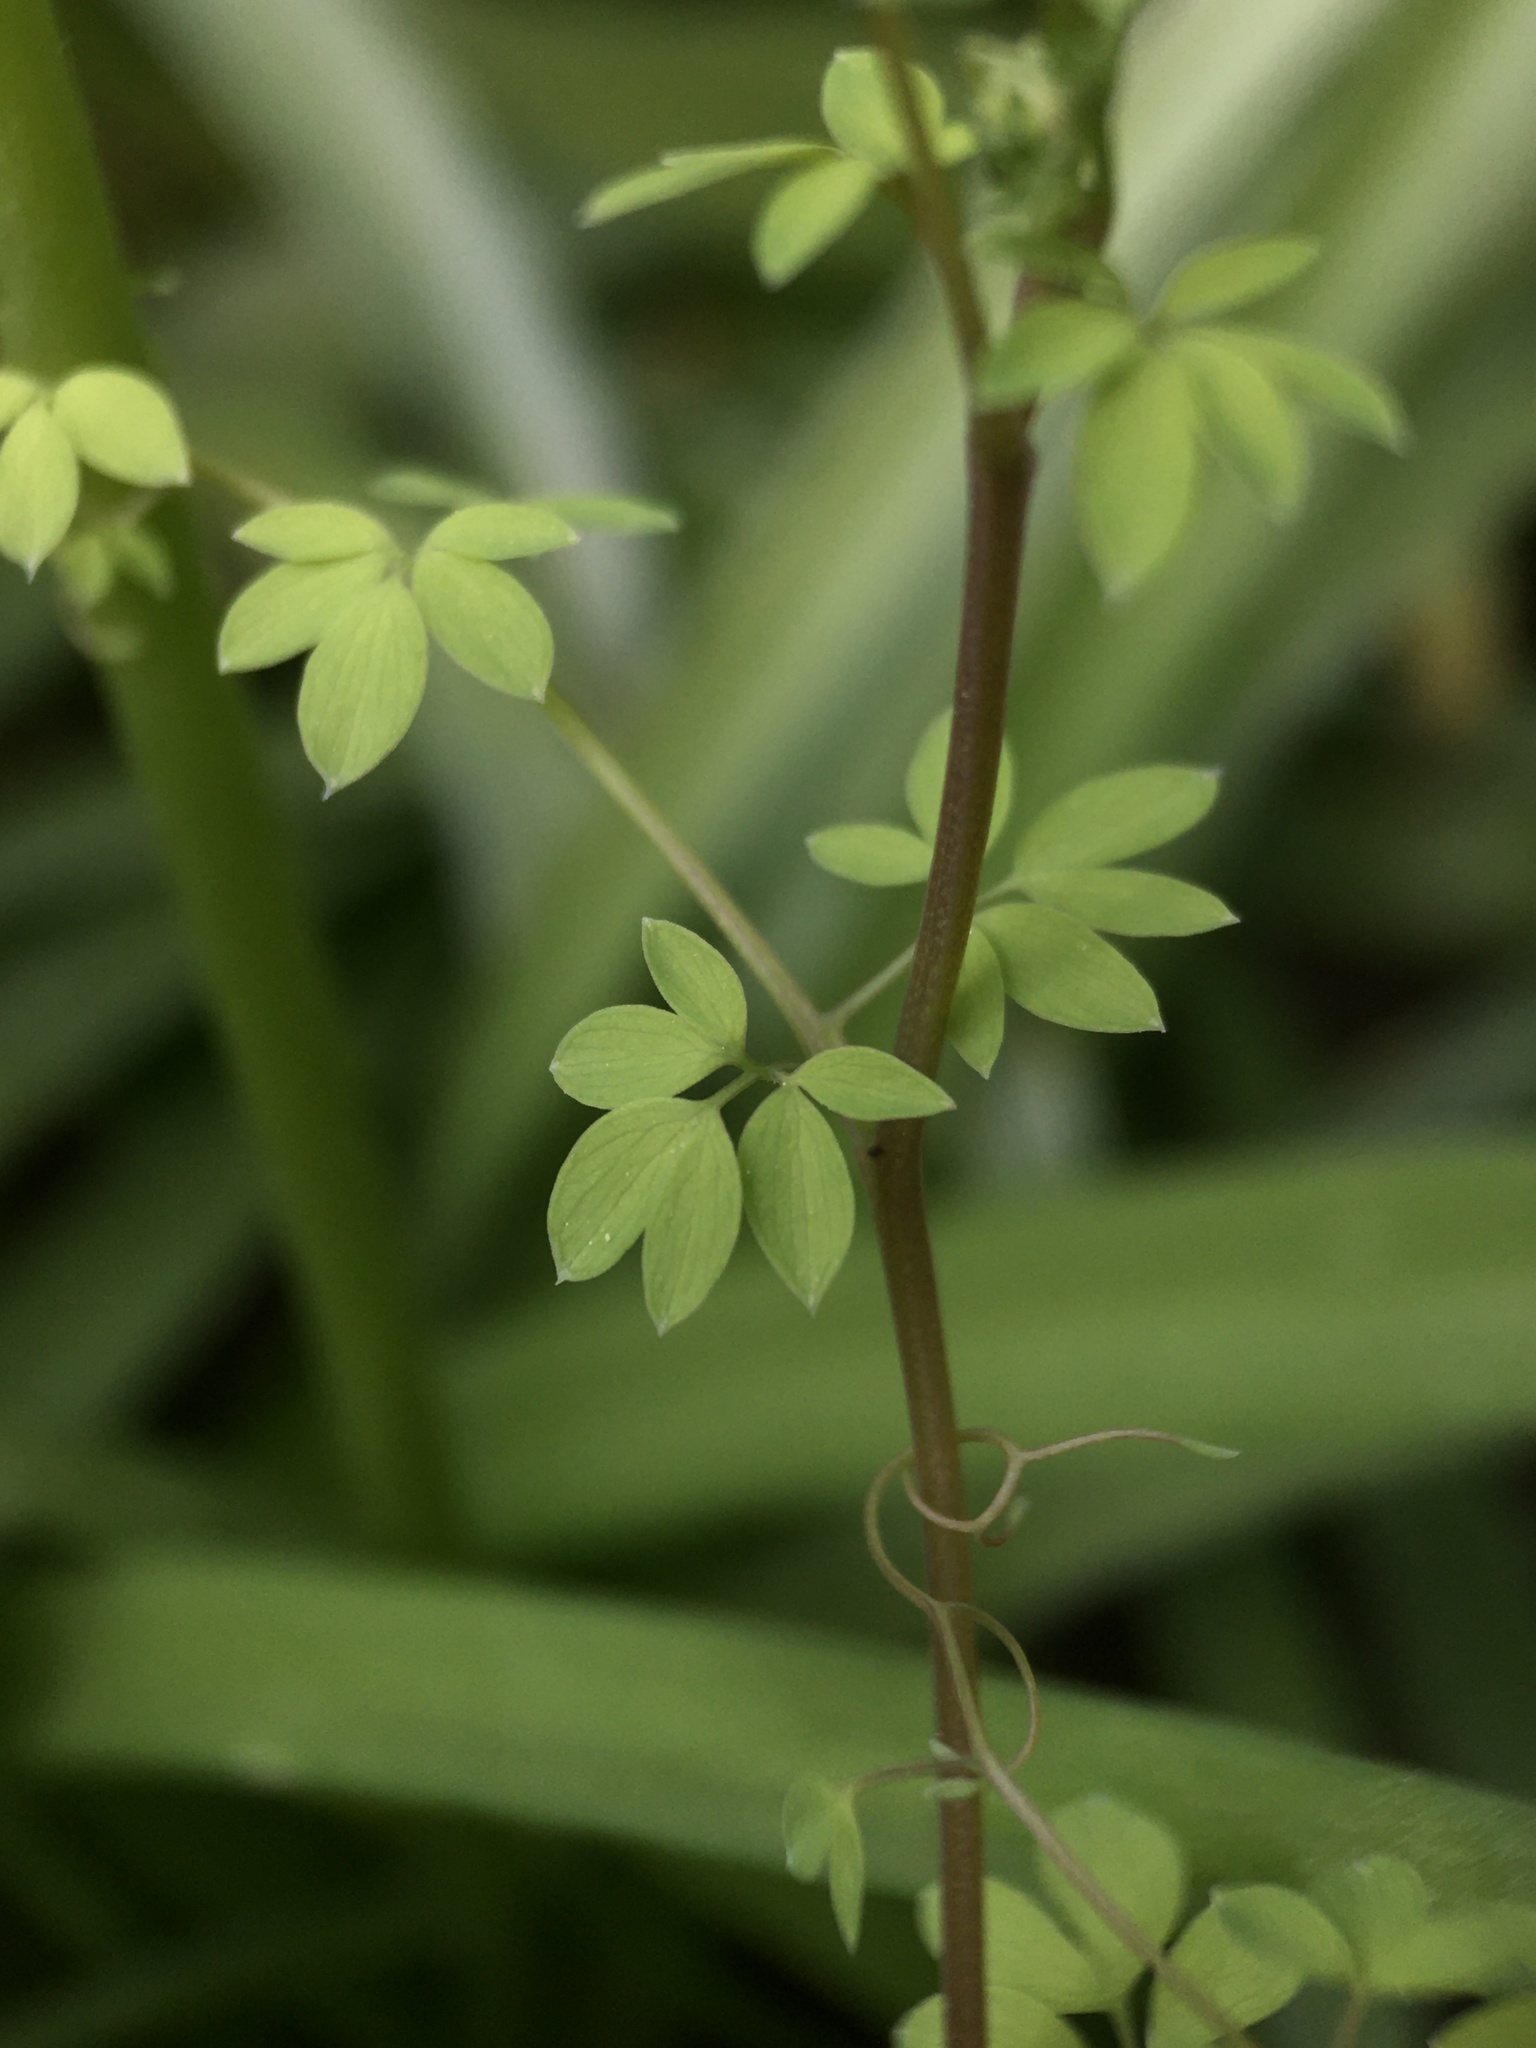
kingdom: Plantae
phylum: Tracheophyta
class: Magnoliopsida
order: Ranunculales
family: Papaveraceae
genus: Ceratocapnos
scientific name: Ceratocapnos claviculata
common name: Climbing corydalis
